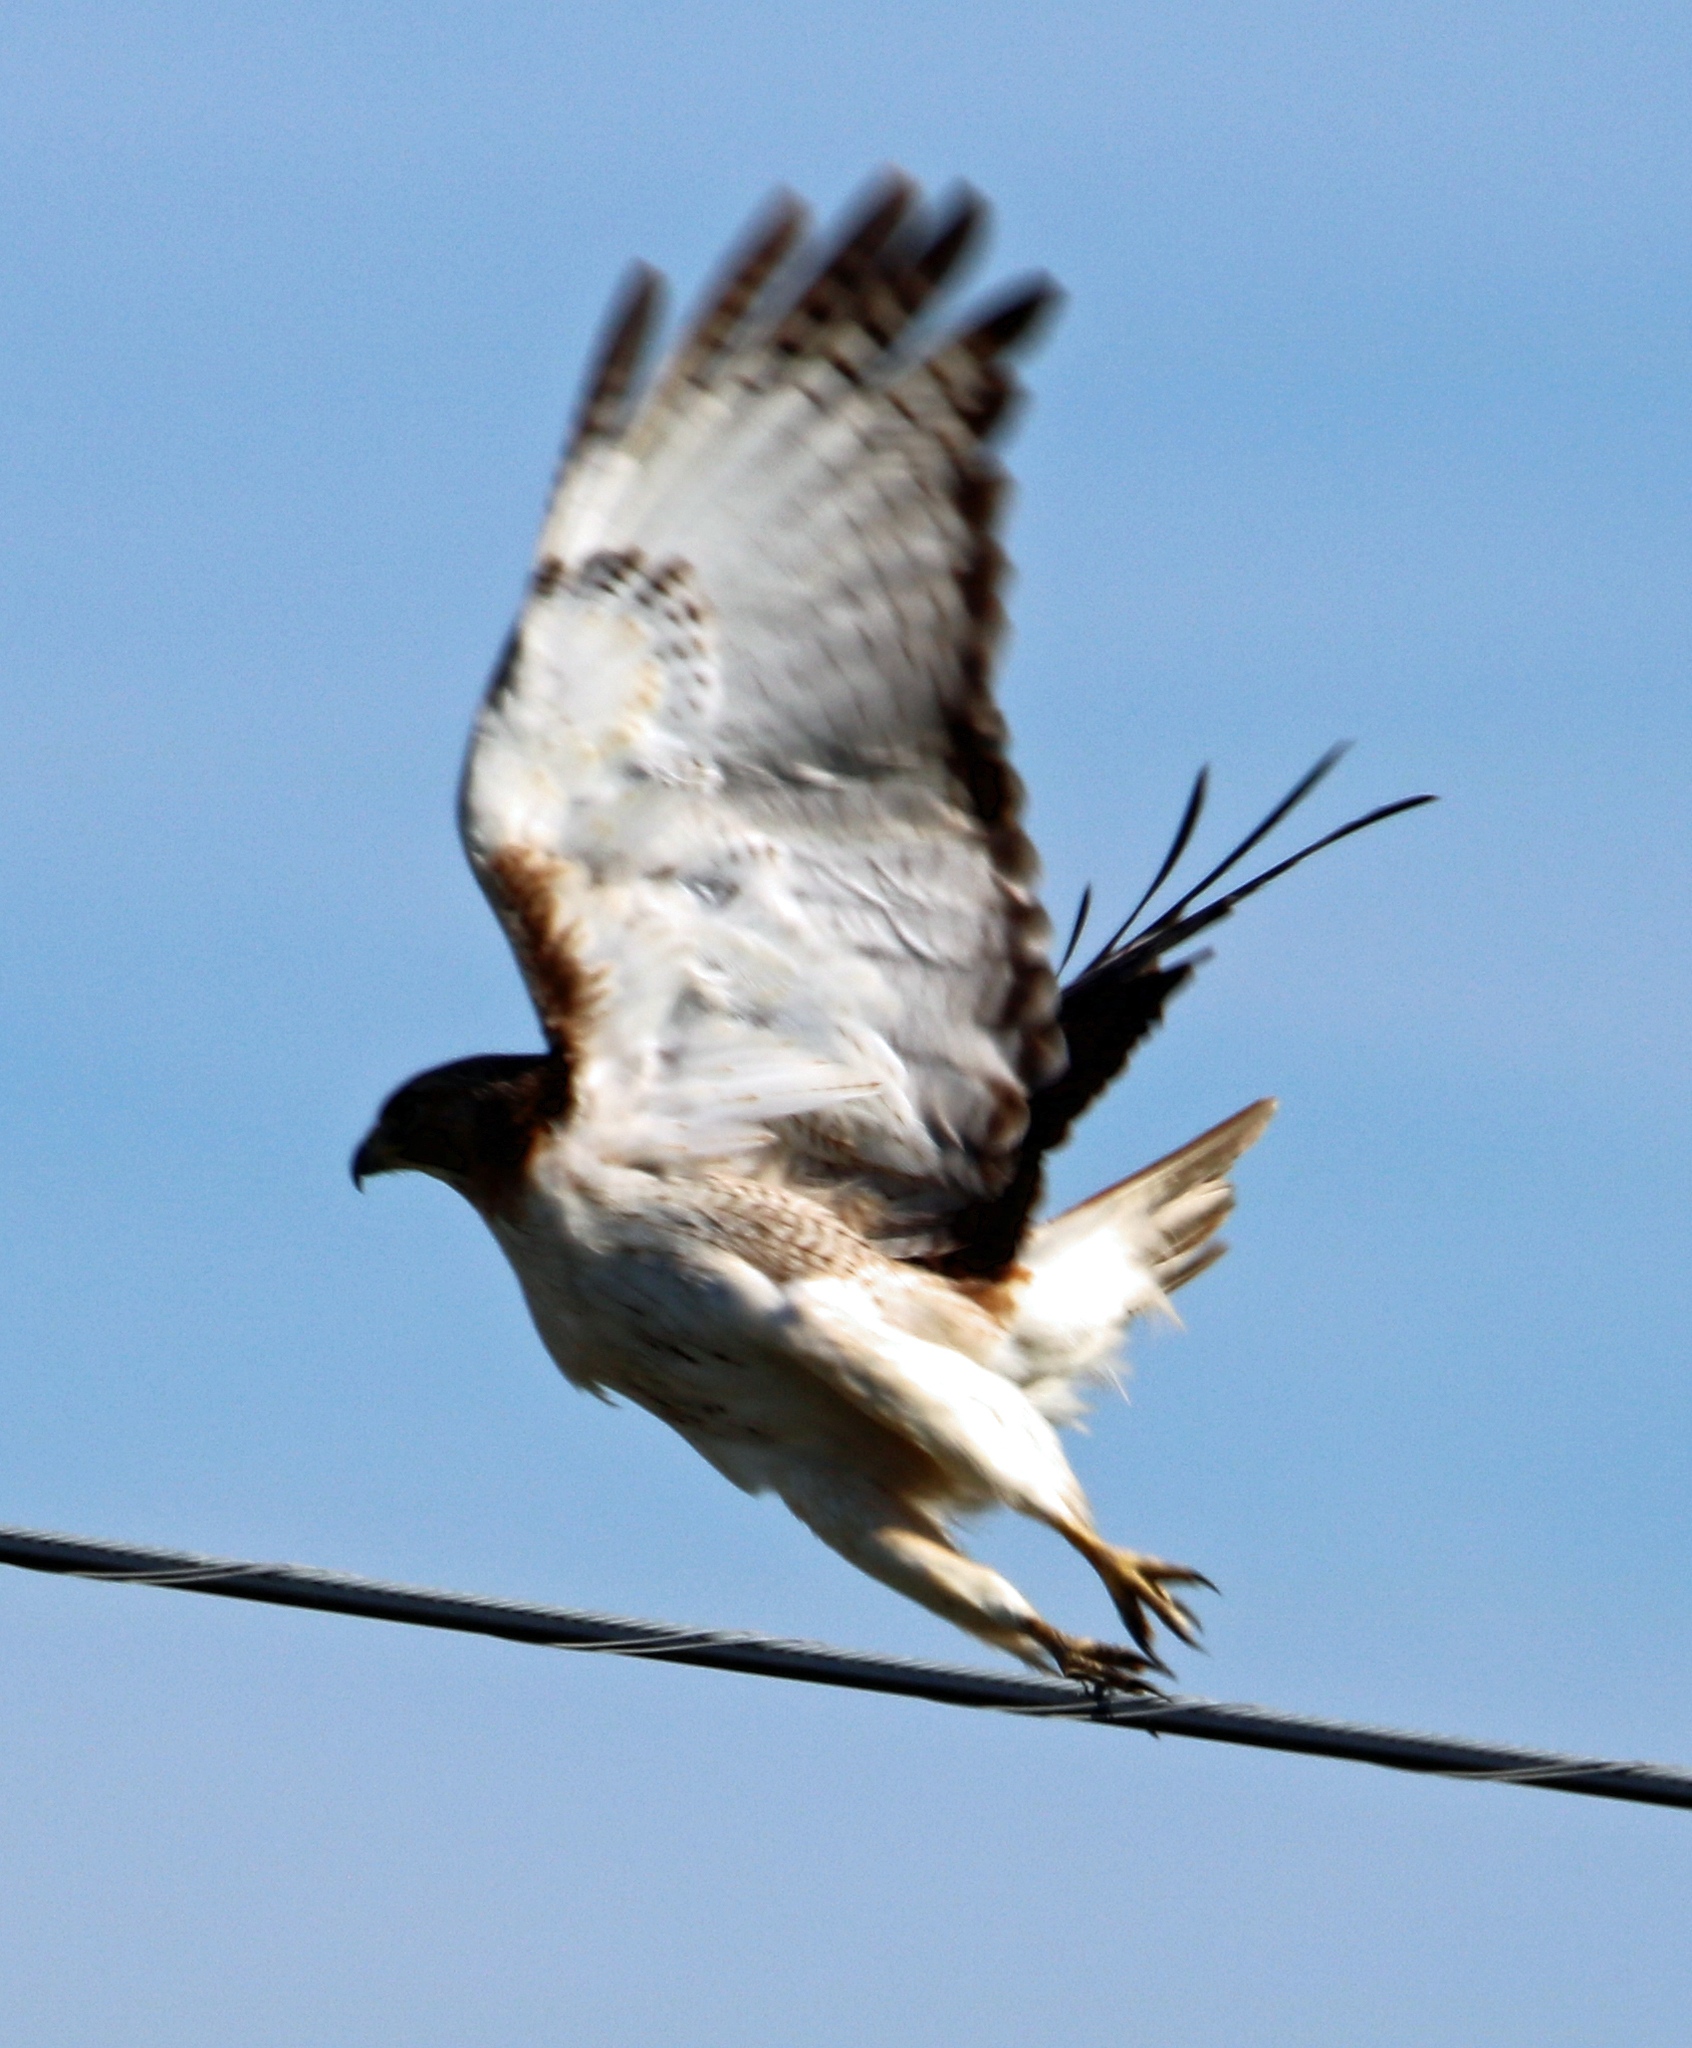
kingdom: Animalia
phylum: Chordata
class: Aves
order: Accipitriformes
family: Accipitridae
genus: Buteo
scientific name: Buteo jamaicensis
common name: Red-tailed hawk
